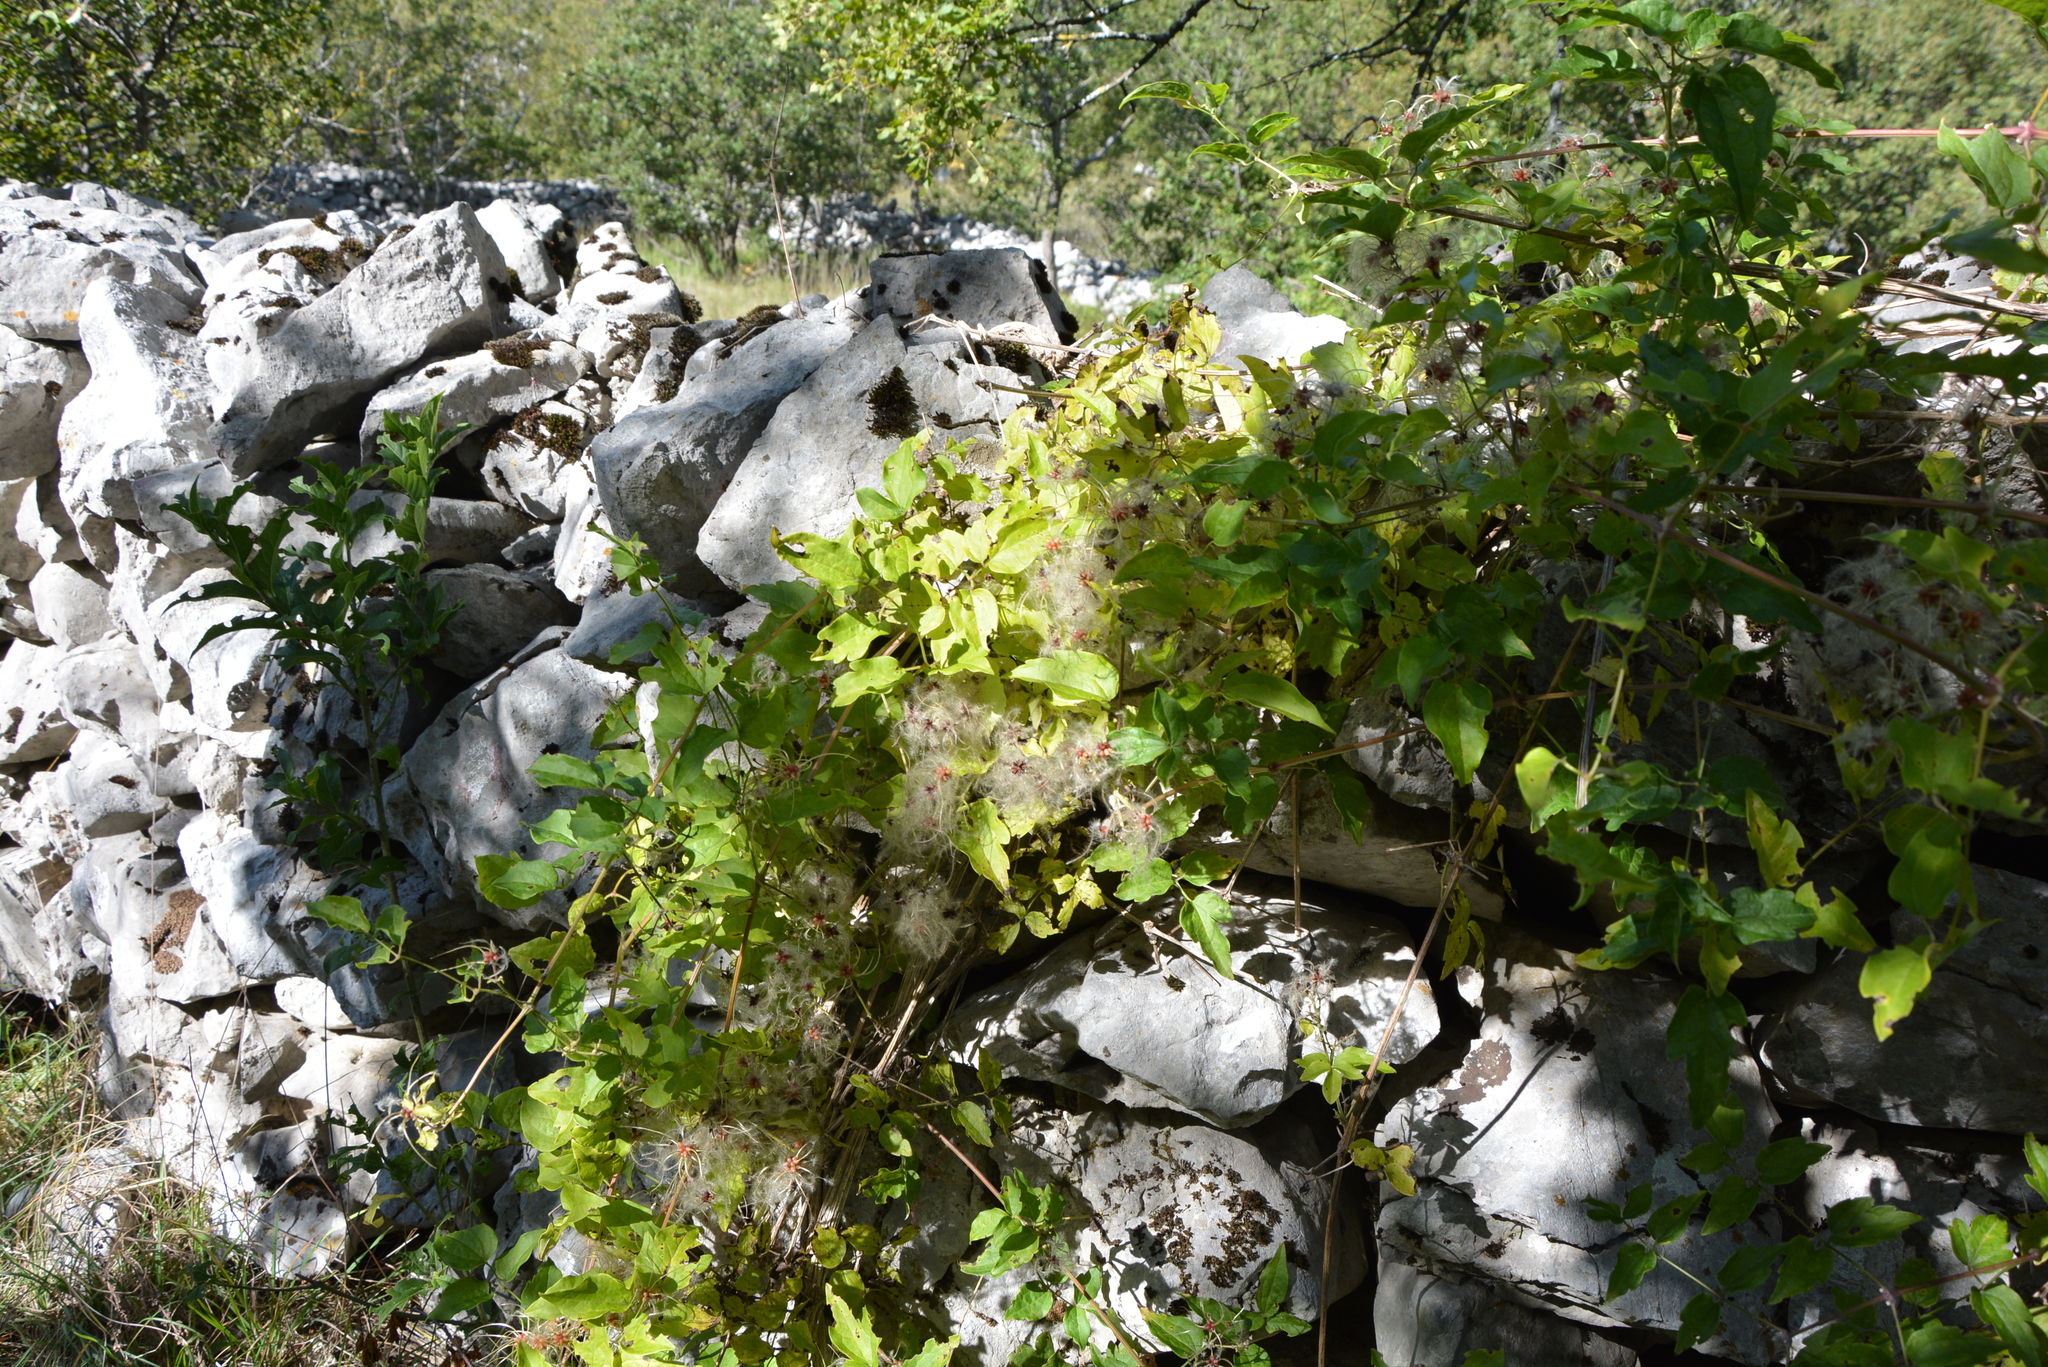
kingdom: Plantae
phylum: Tracheophyta
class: Magnoliopsida
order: Ranunculales
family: Ranunculaceae
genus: Clematis
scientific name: Clematis vitalba
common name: Evergreen clematis
